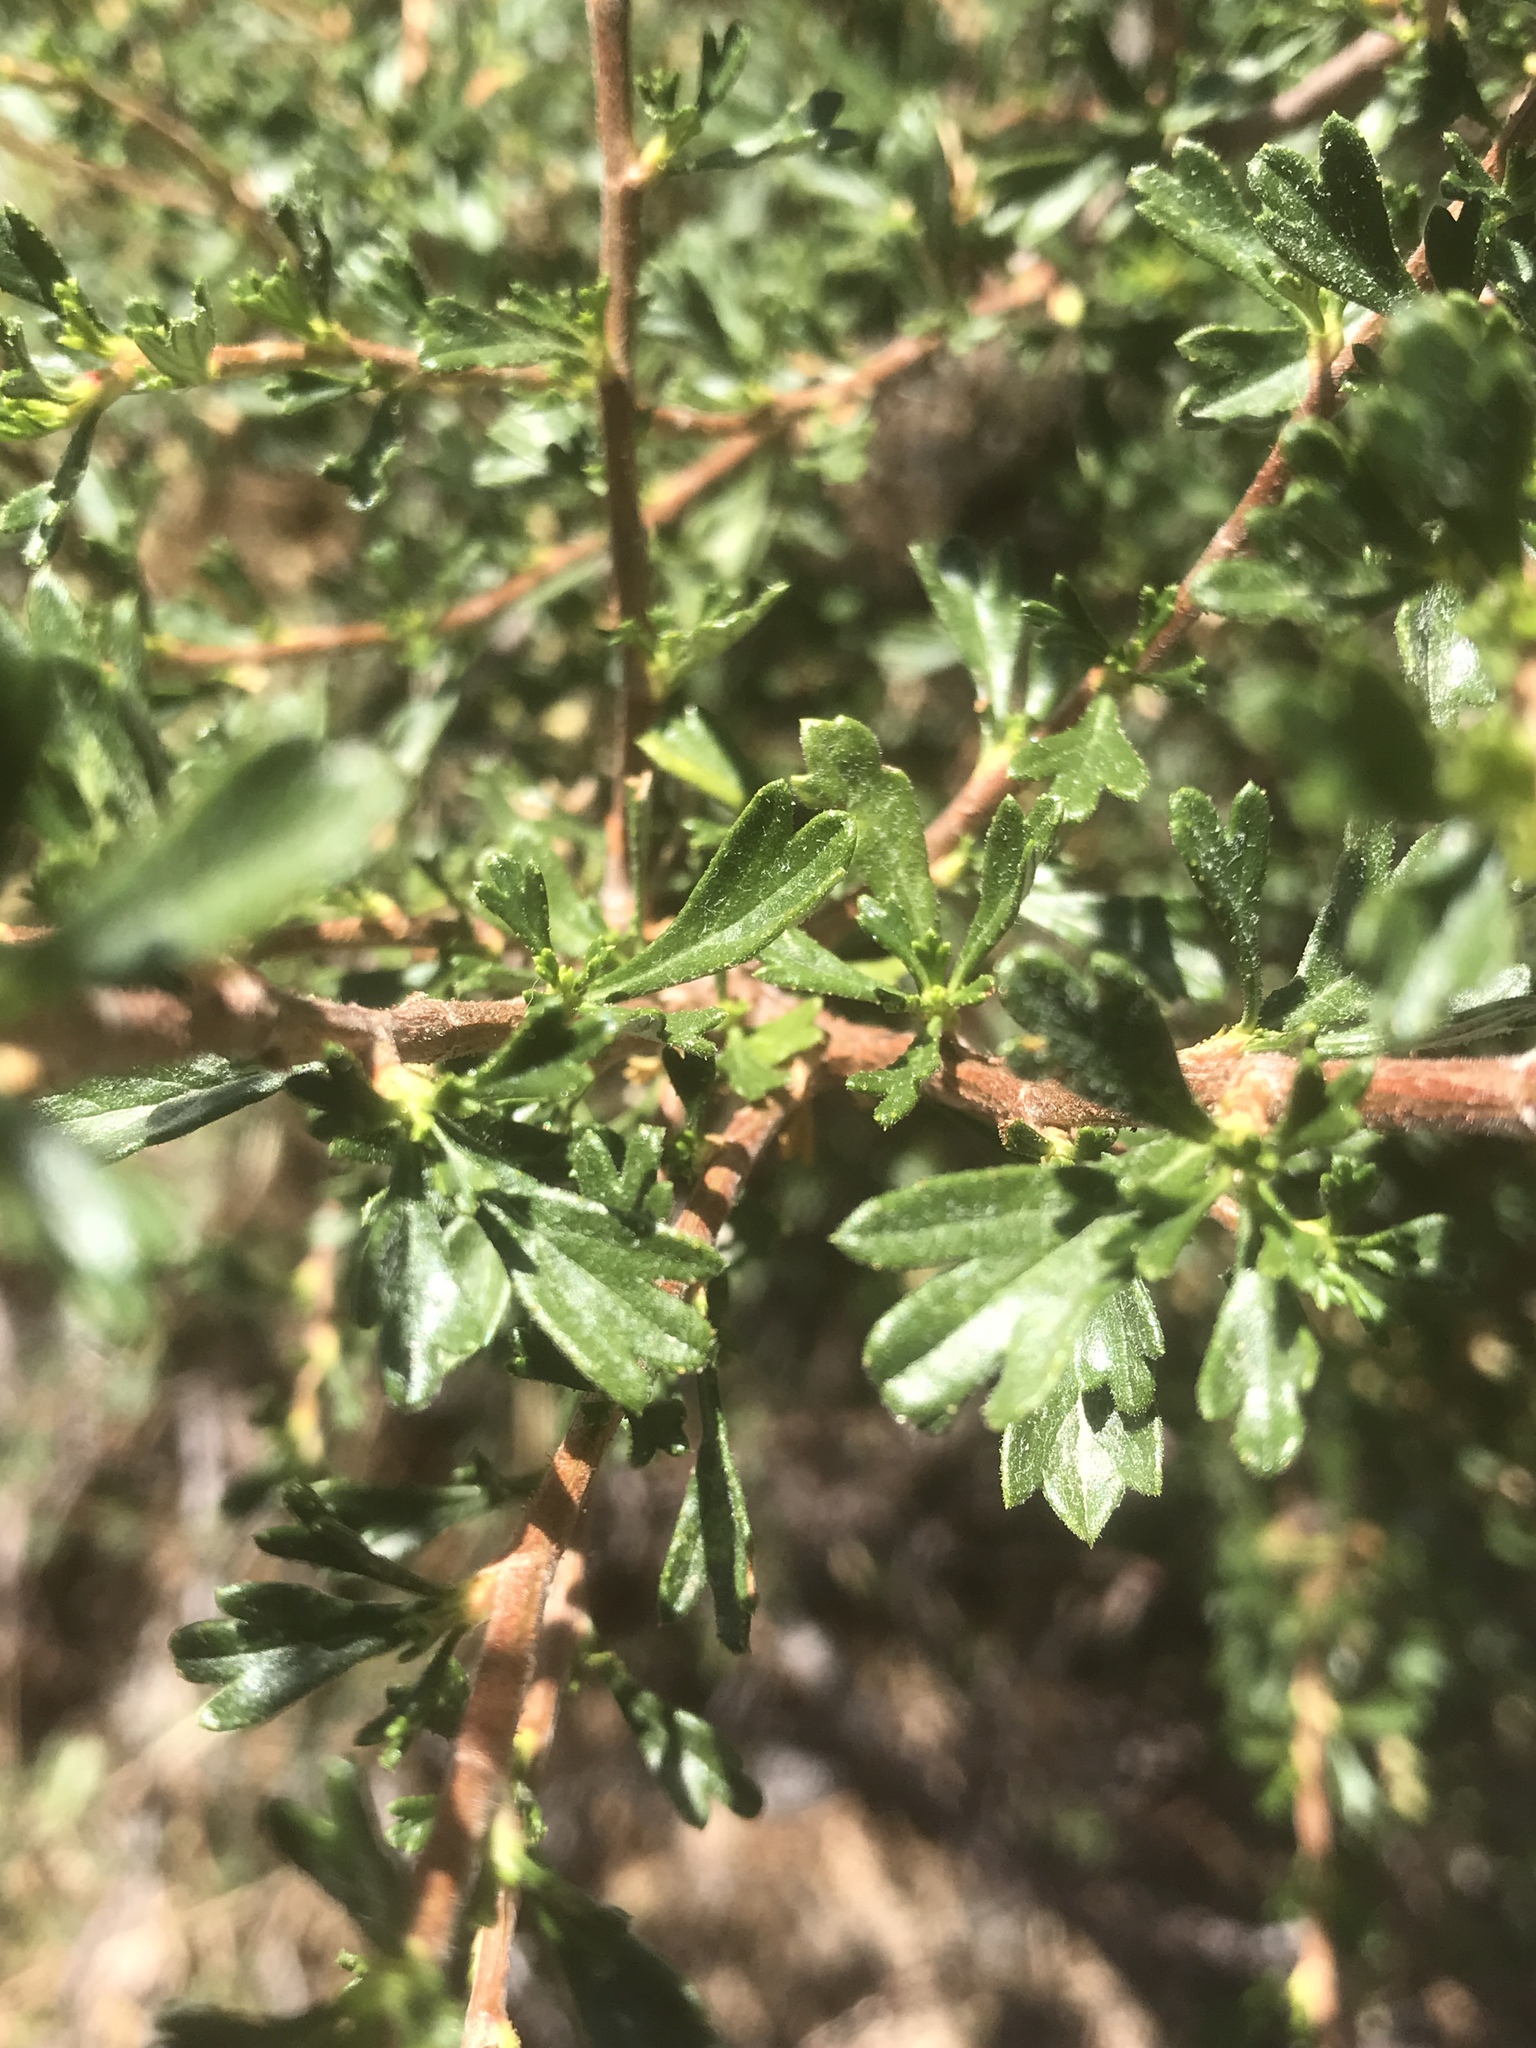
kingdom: Plantae
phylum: Tracheophyta
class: Magnoliopsida
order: Rosales
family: Rosaceae
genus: Purshia
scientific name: Purshia tridentata
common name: Antelope bitterbrush
